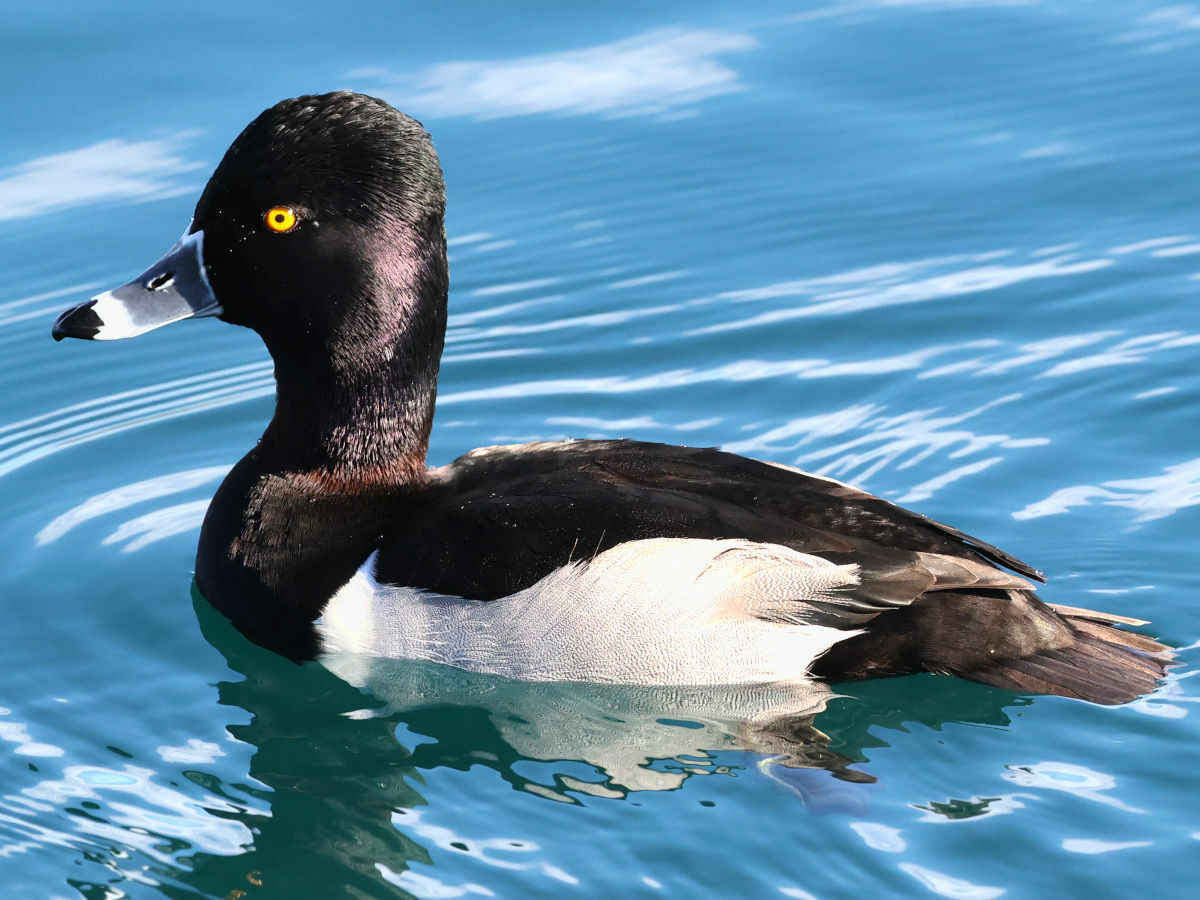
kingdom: Animalia
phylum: Chordata
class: Aves
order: Anseriformes
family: Anatidae
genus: Aythya
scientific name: Aythya collaris
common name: Ring-necked duck
